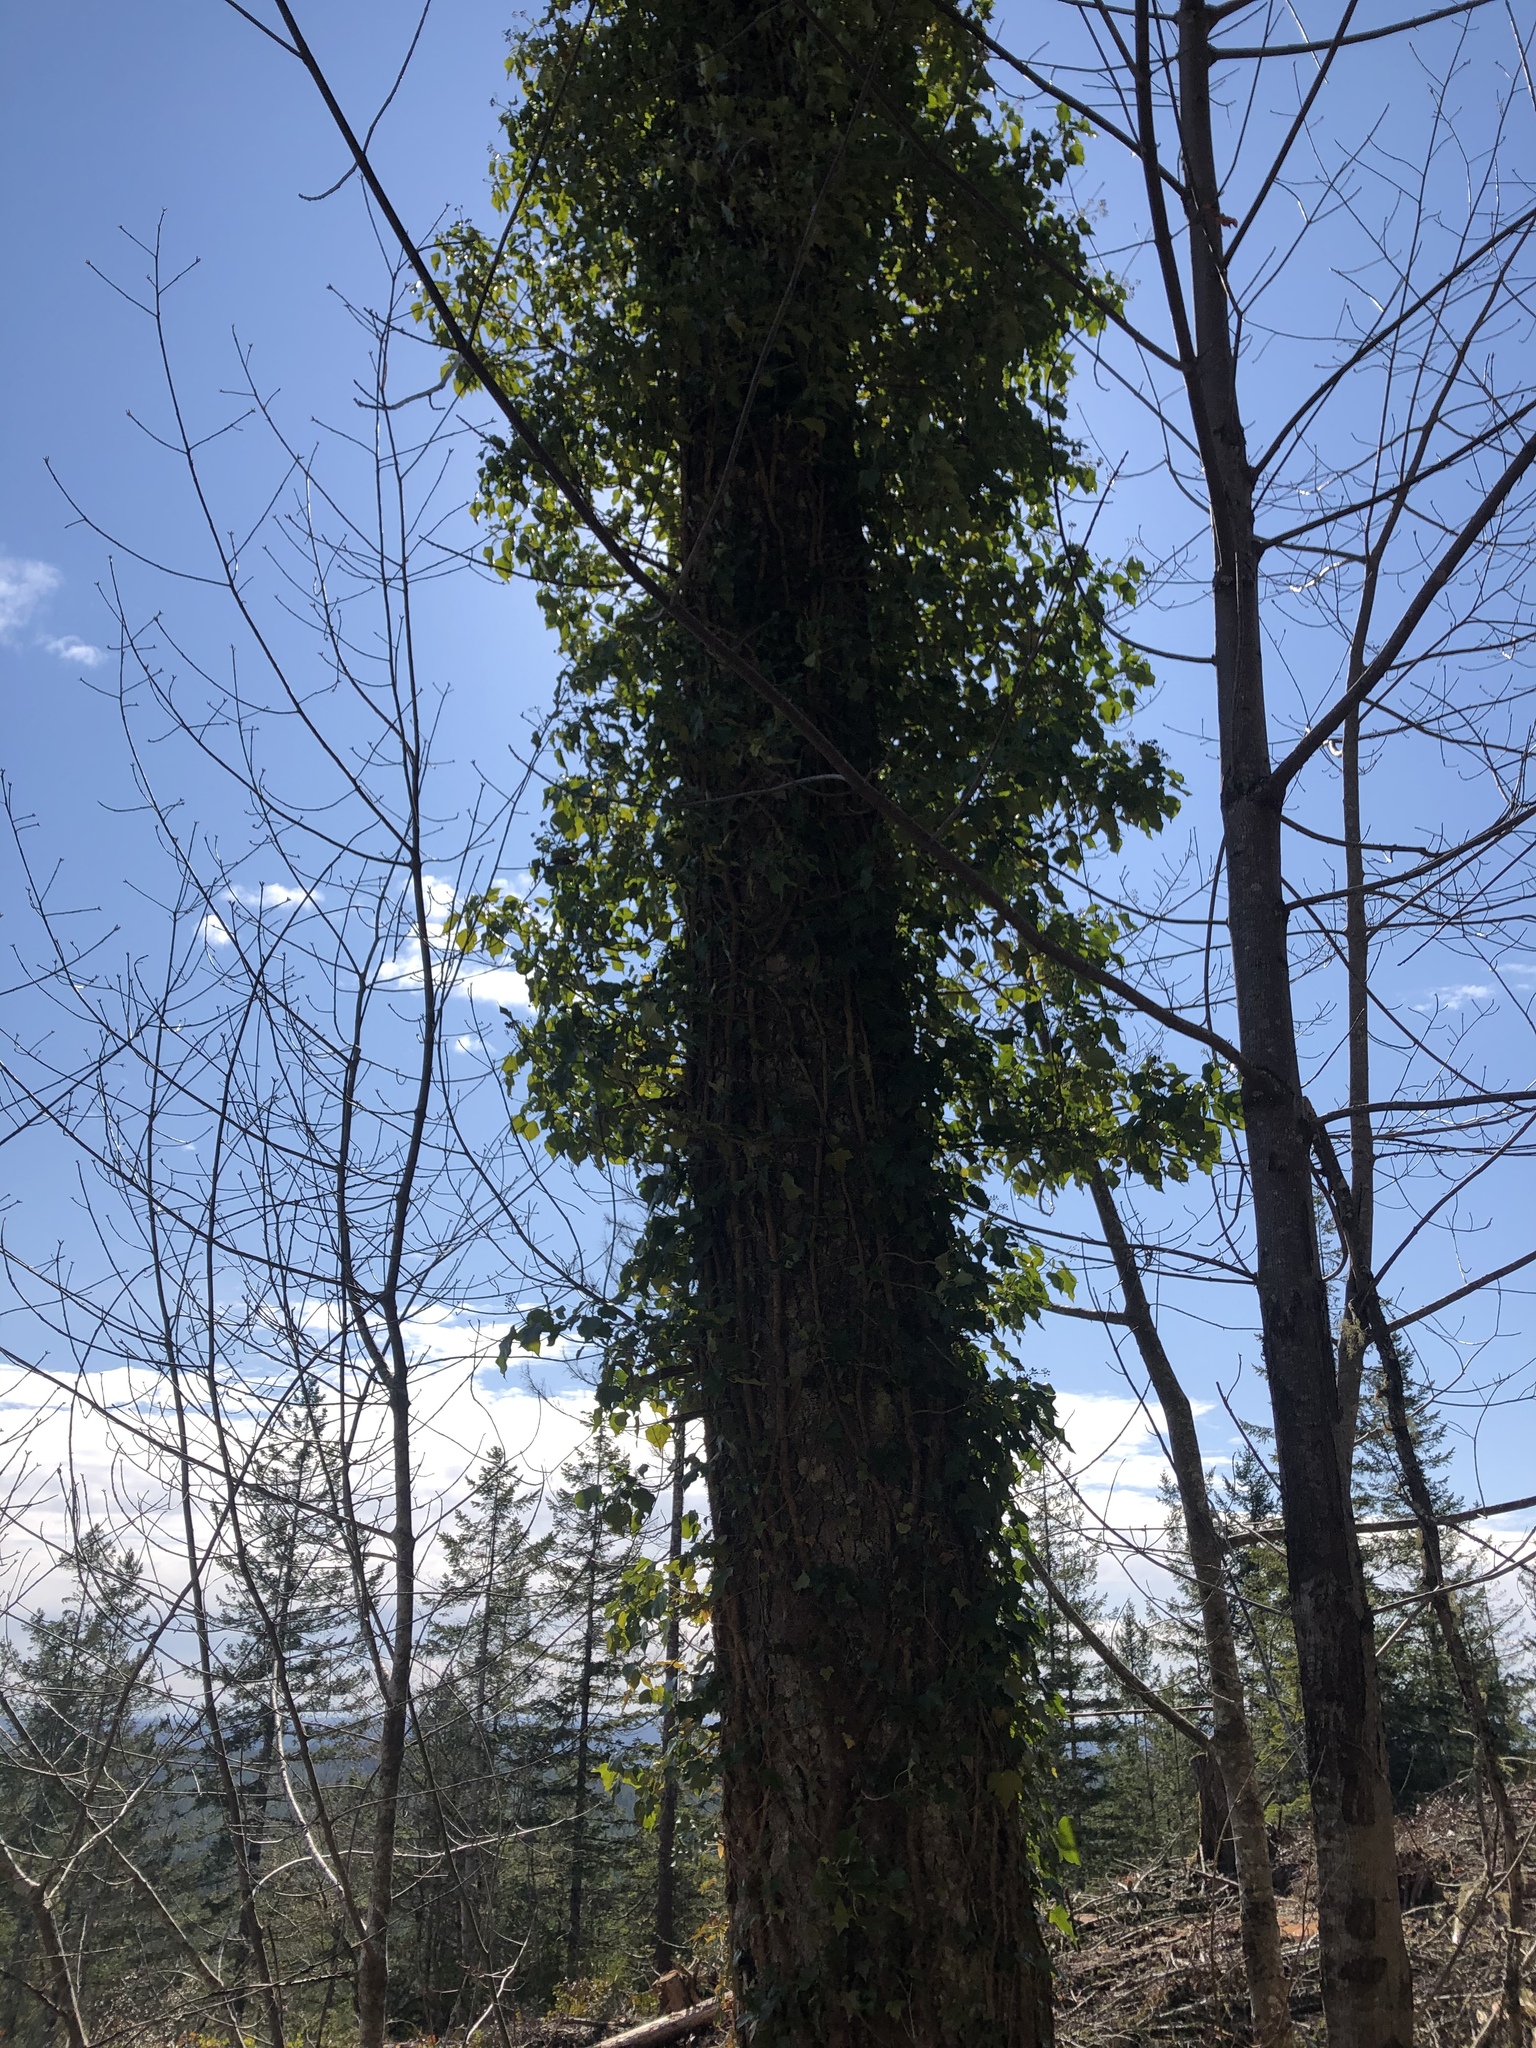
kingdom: Plantae
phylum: Tracheophyta
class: Magnoliopsida
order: Apiales
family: Araliaceae
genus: Hedera
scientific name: Hedera helix
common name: Ivy
